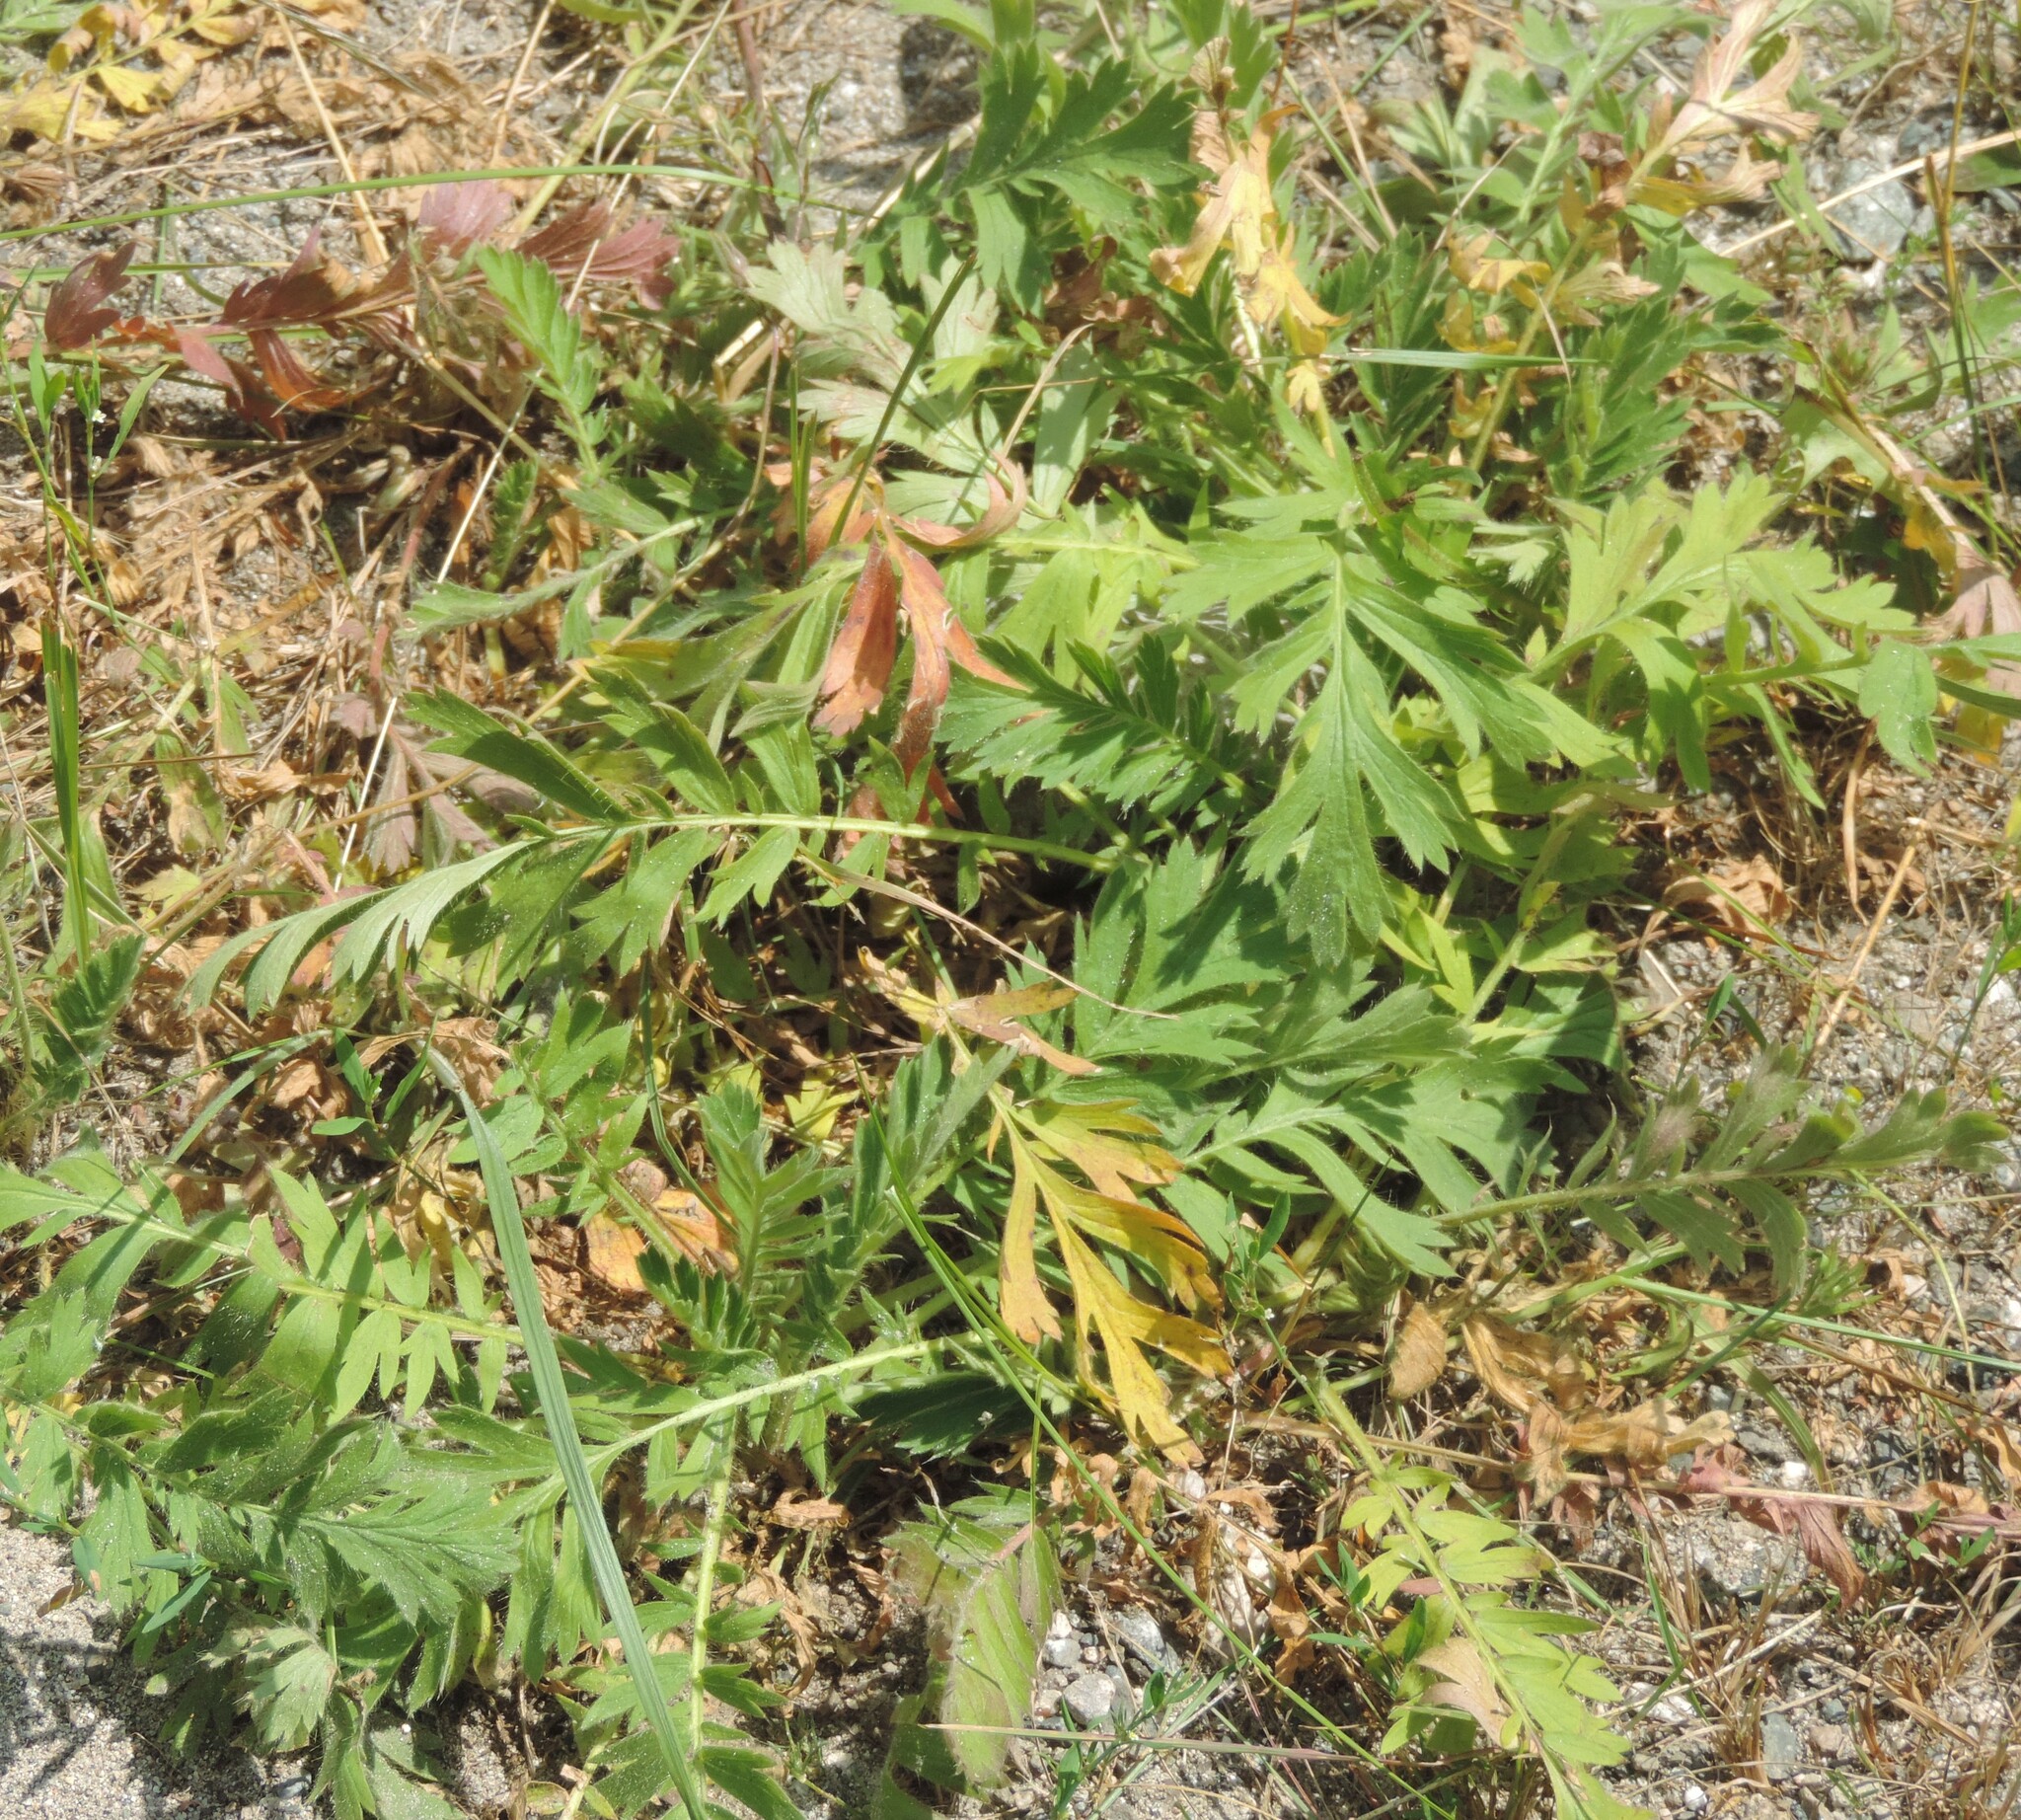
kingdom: Plantae
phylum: Tracheophyta
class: Magnoliopsida
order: Rosales
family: Rosaceae
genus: Geum
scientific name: Geum triflorum
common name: Old man's whiskers
